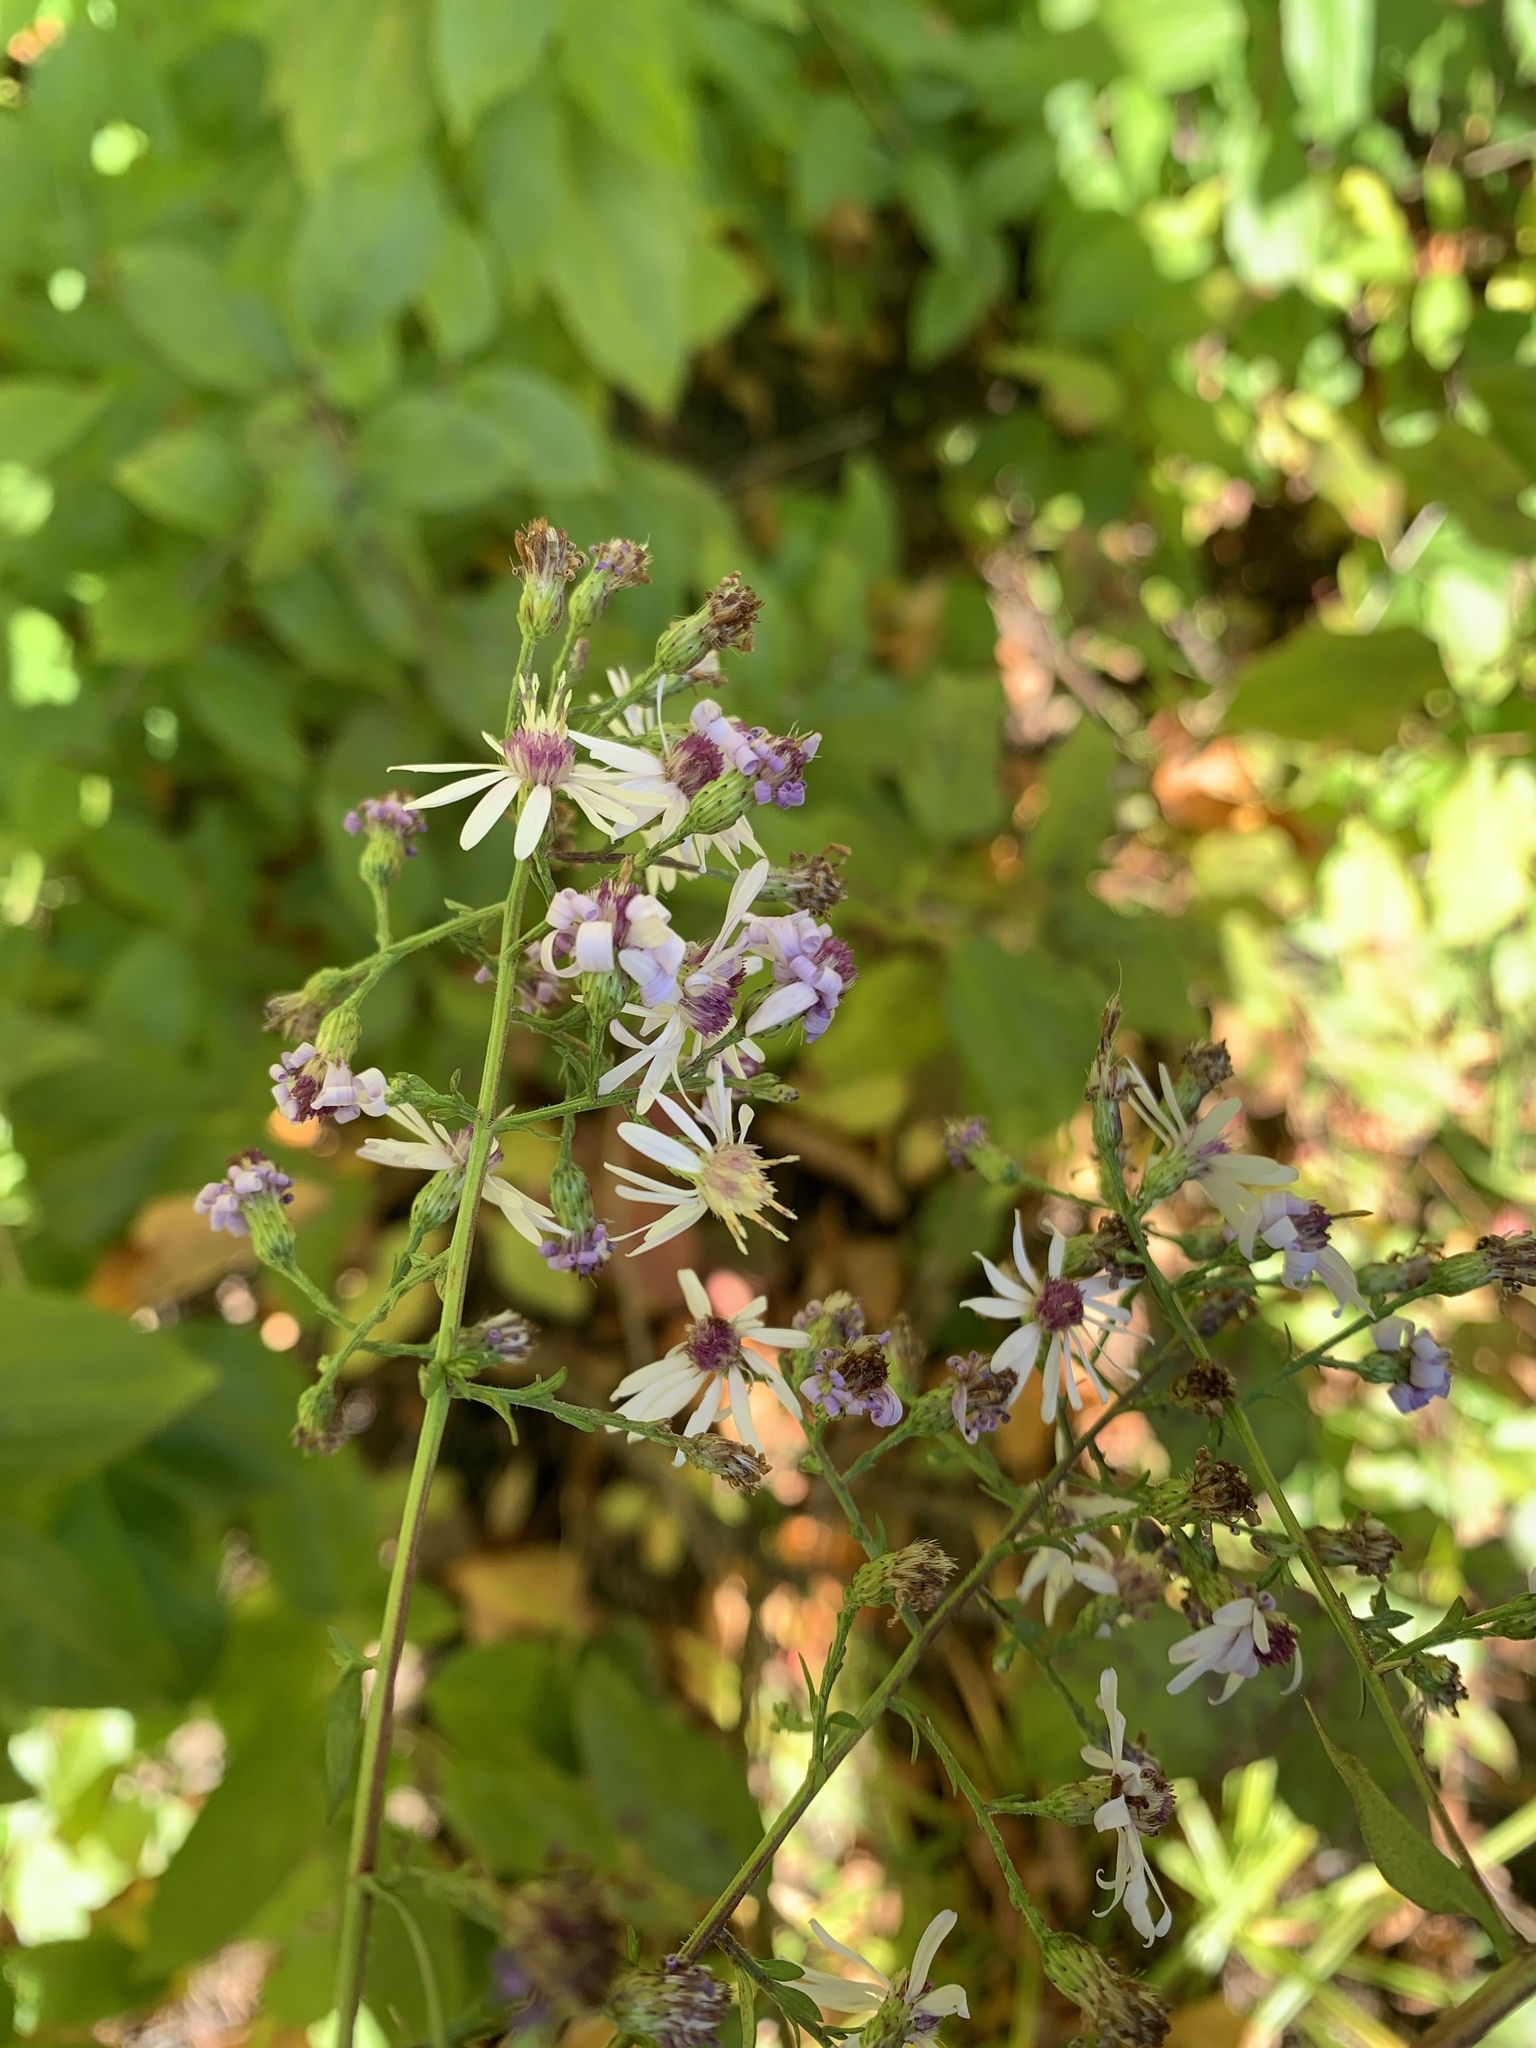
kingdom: Plantae
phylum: Tracheophyta
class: Magnoliopsida
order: Asterales
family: Asteraceae
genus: Symphyotrichum
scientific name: Symphyotrichum cordifolium
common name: Beeweed
